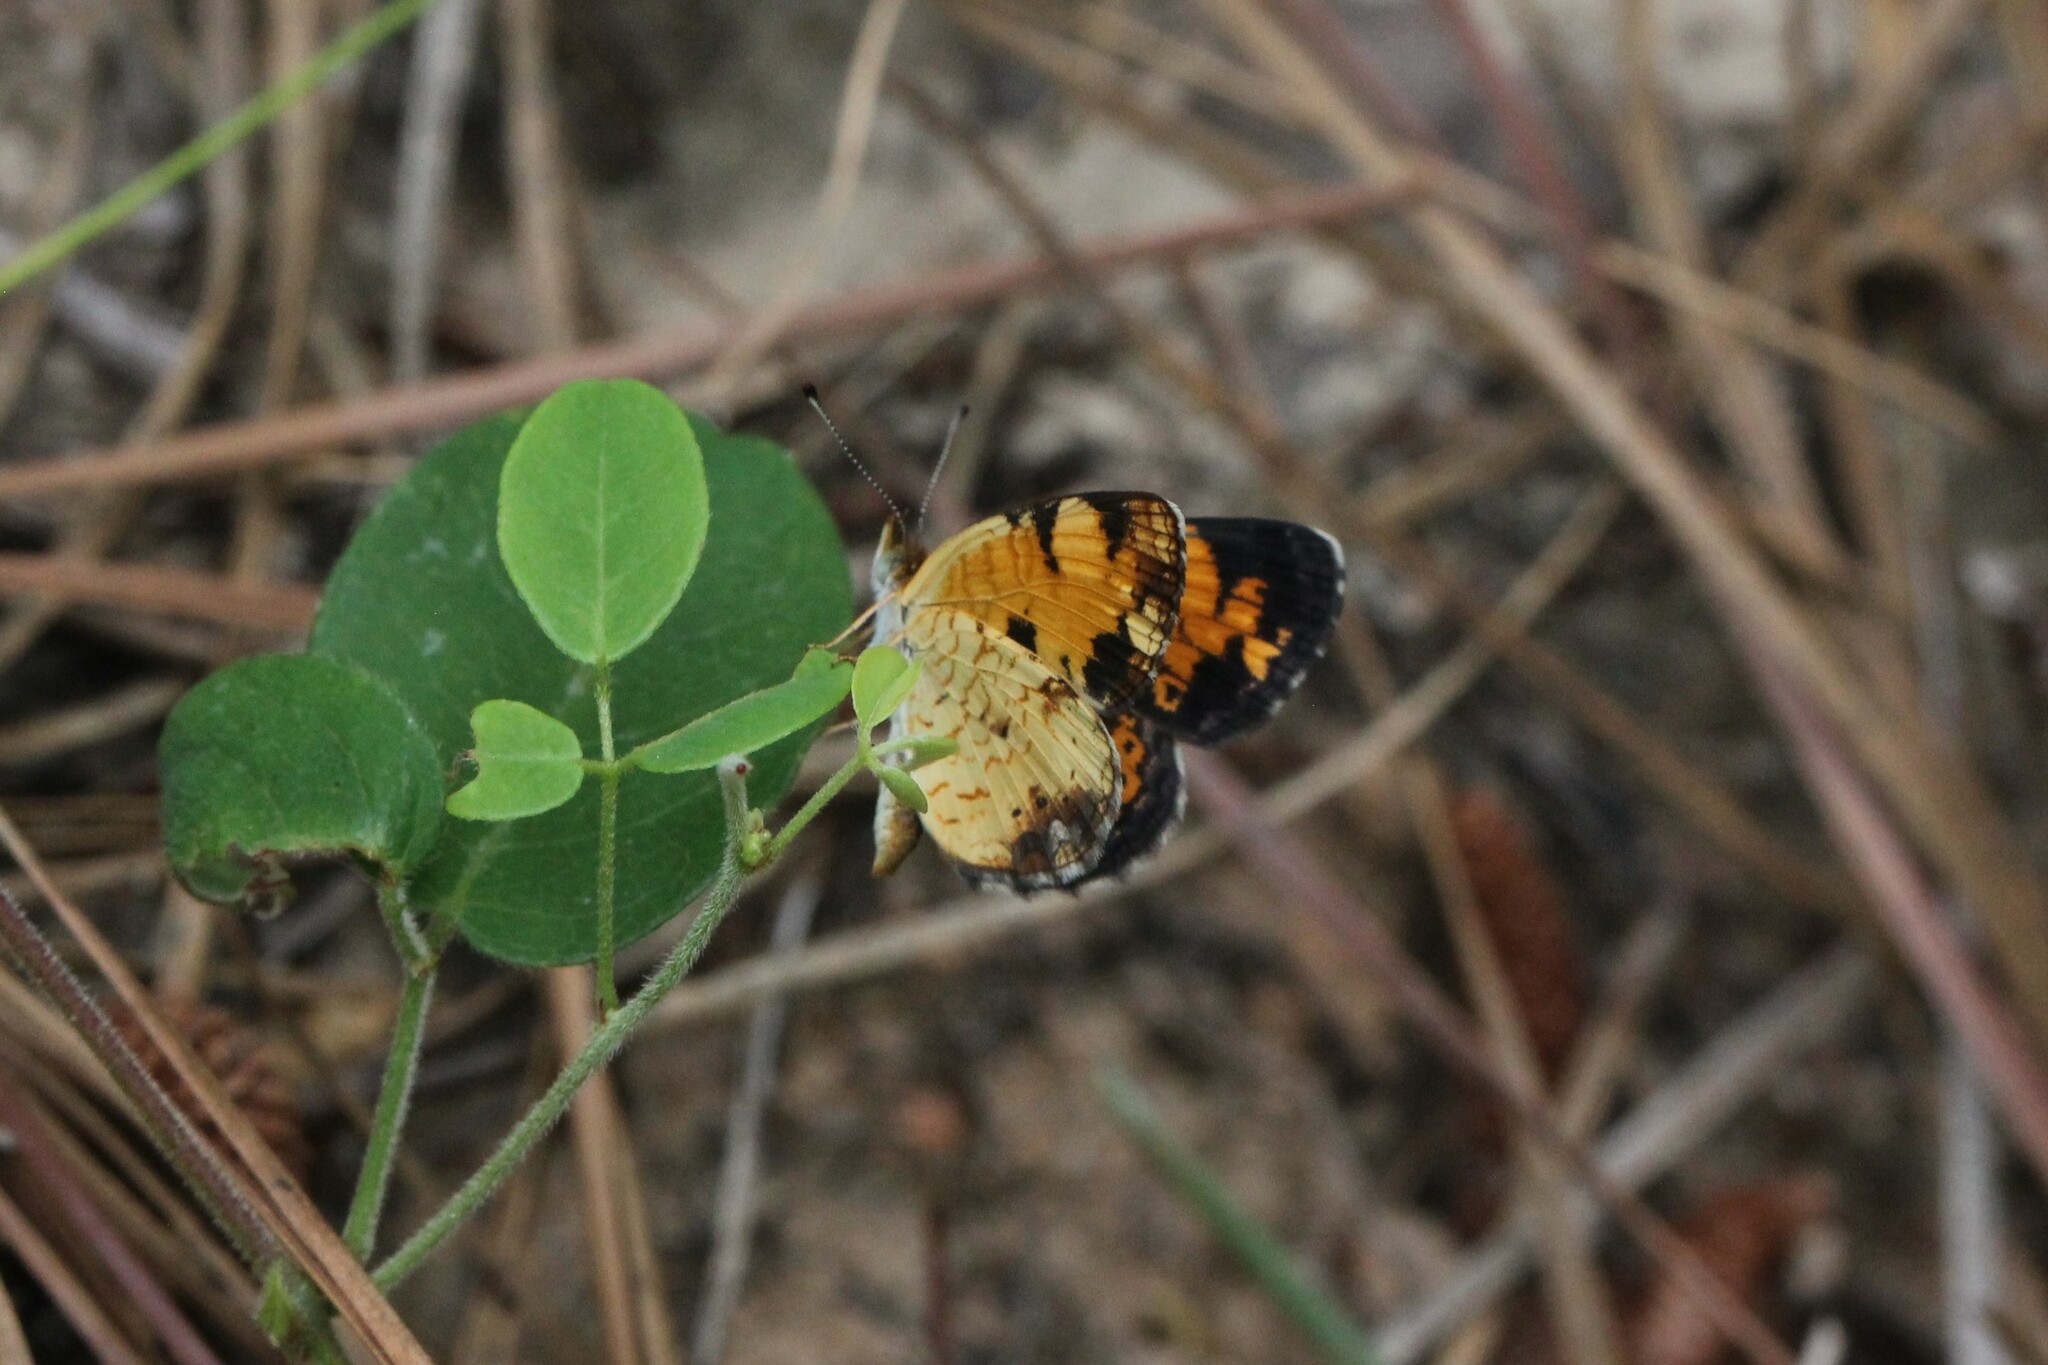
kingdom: Animalia
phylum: Arthropoda
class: Insecta
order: Lepidoptera
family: Nymphalidae
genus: Phyciodes
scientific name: Phyciodes tharos
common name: Pearl crescent
